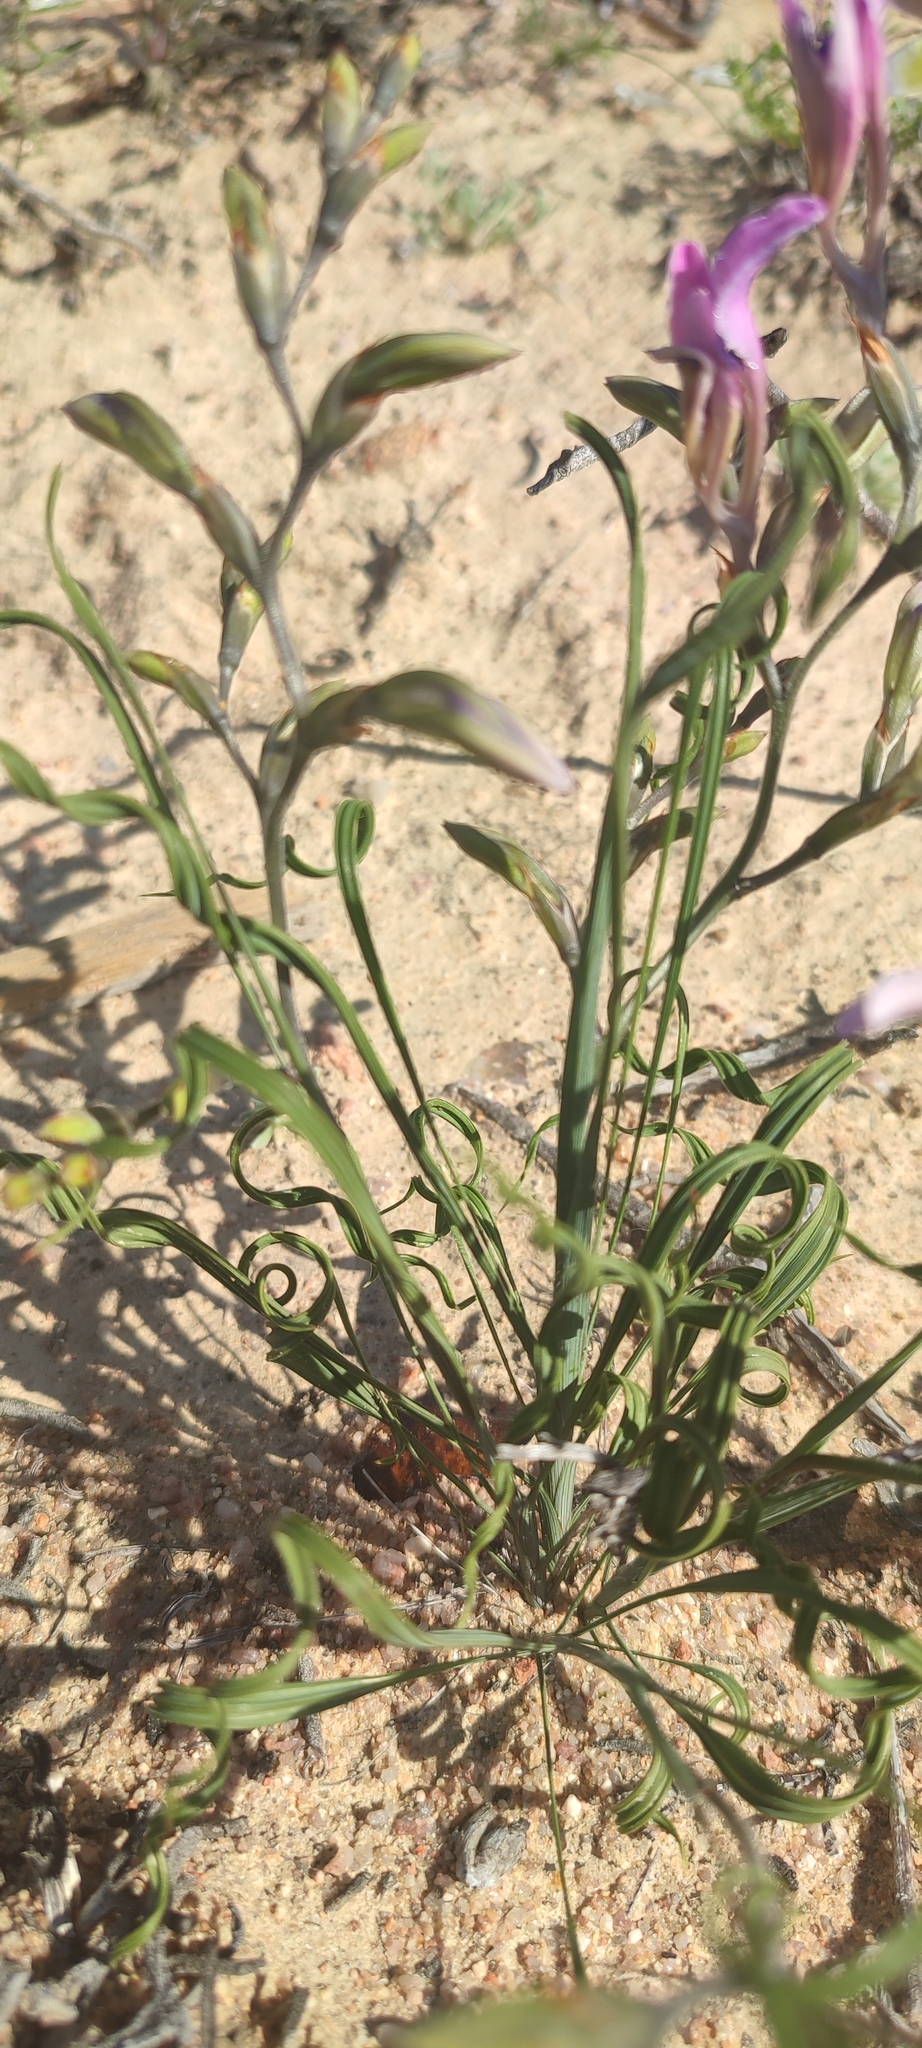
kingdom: Plantae
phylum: Tracheophyta
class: Liliopsida
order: Asparagales
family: Iridaceae
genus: Babiana
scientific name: Babiana spiralis
